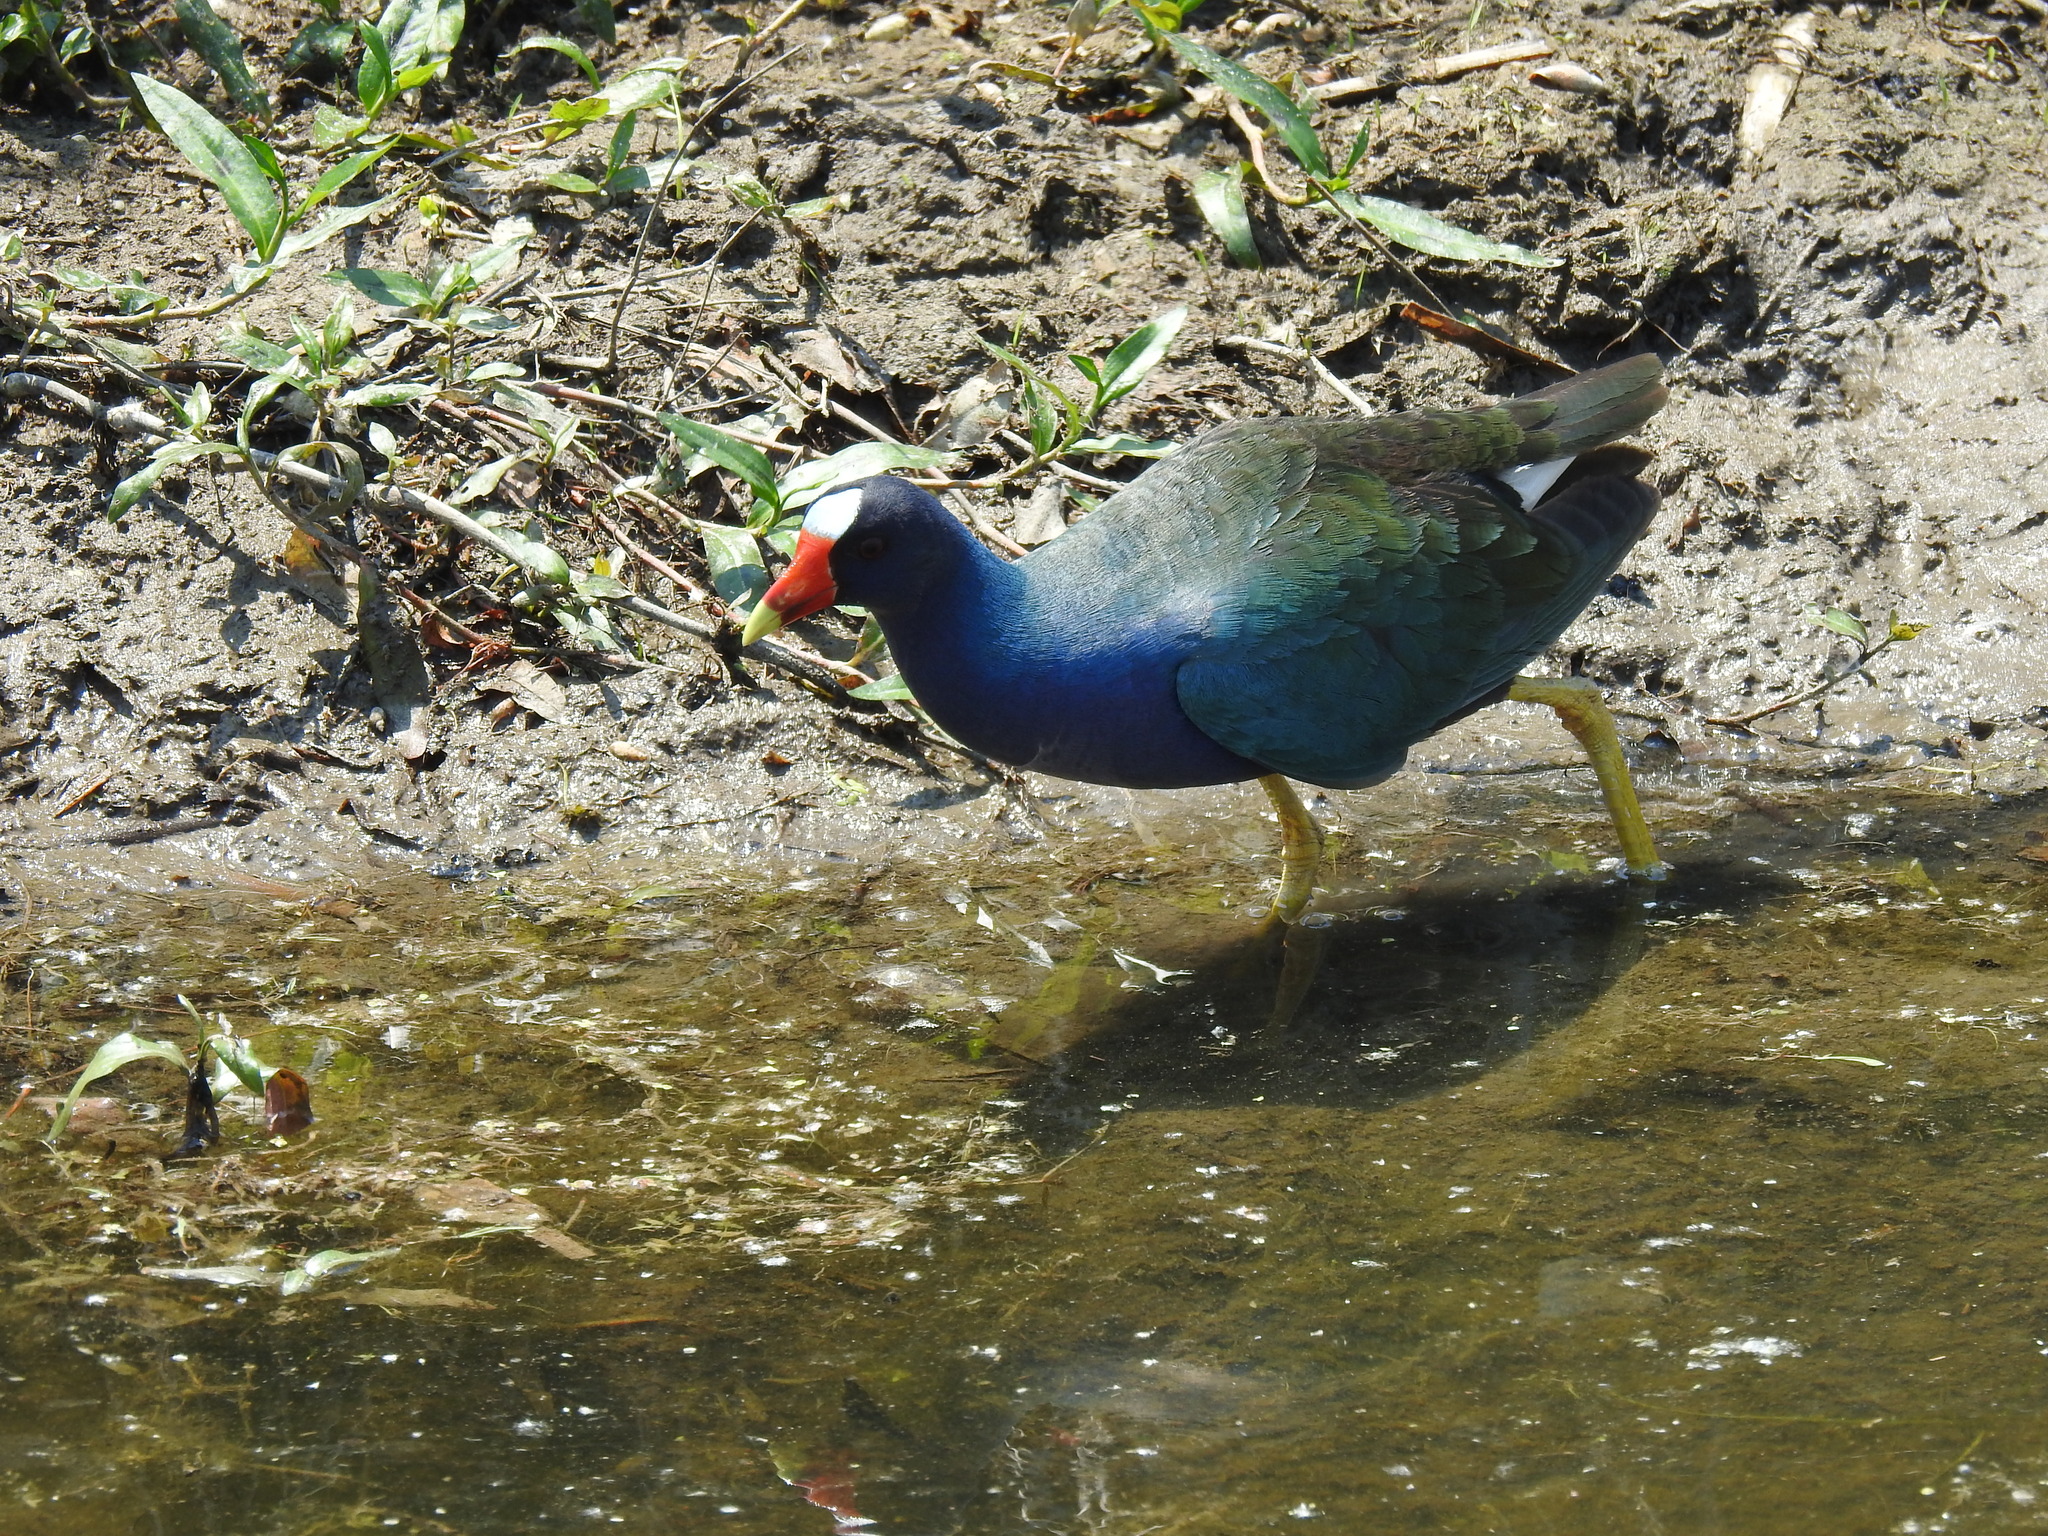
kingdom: Animalia
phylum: Chordata
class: Aves
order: Gruiformes
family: Rallidae
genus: Porphyrio
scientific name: Porphyrio martinica
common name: Purple gallinule
